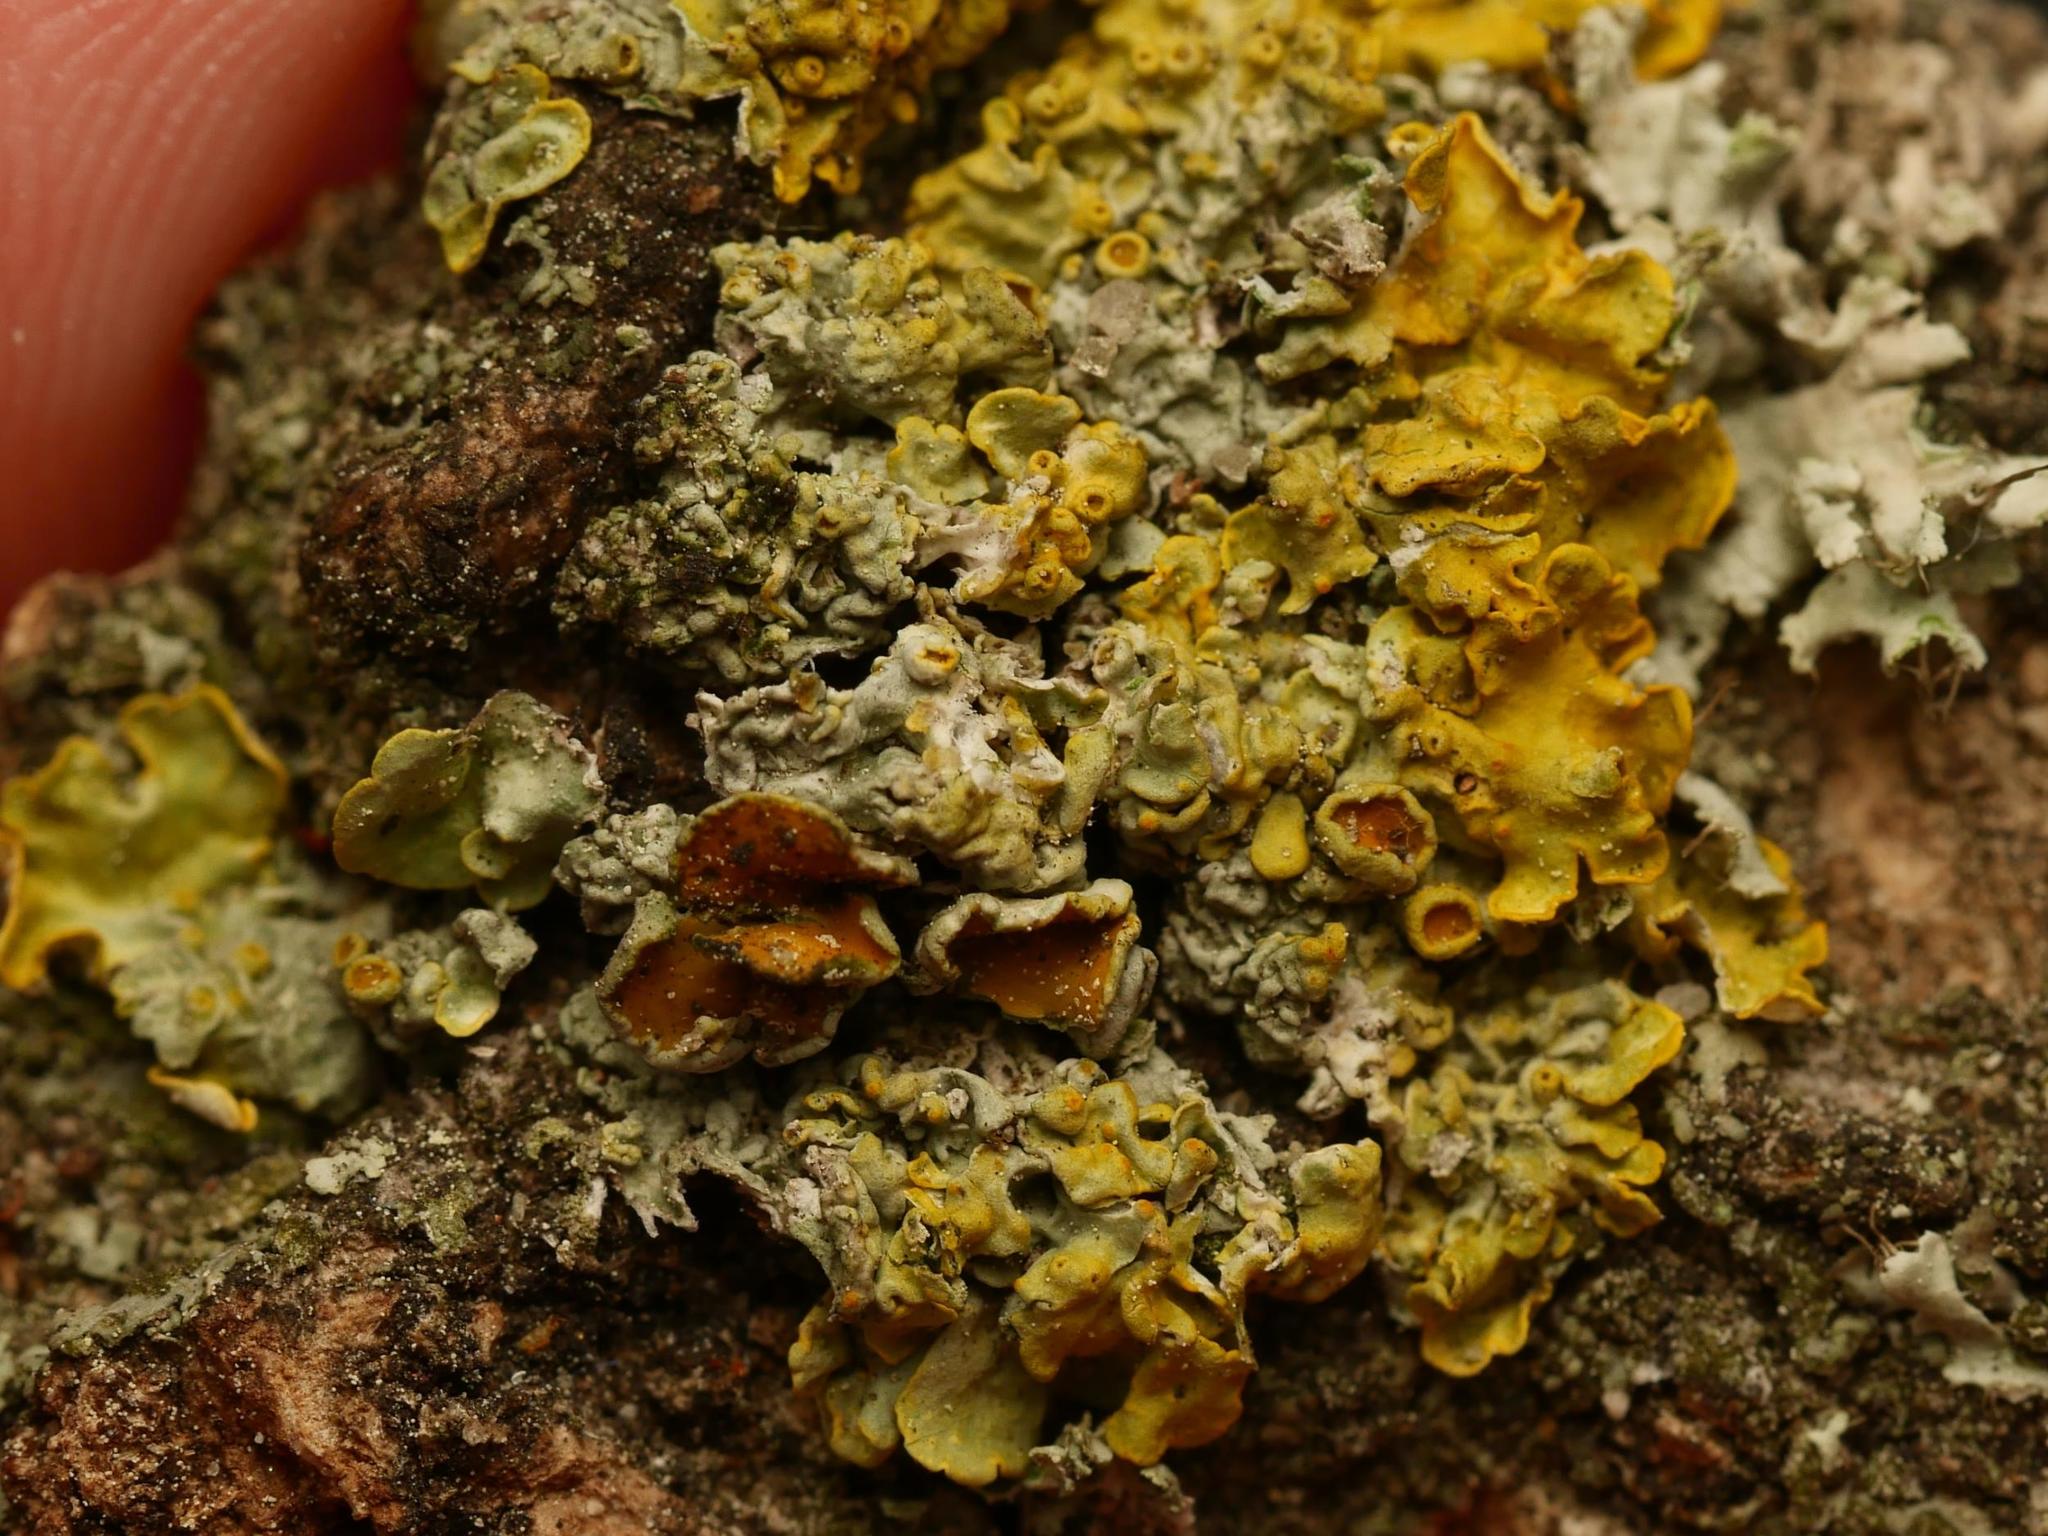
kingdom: Fungi
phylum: Ascomycota
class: Lecanoromycetes
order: Teloschistales
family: Teloschistaceae
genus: Xanthoria
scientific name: Xanthoria parietina
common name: Common orange lichen
